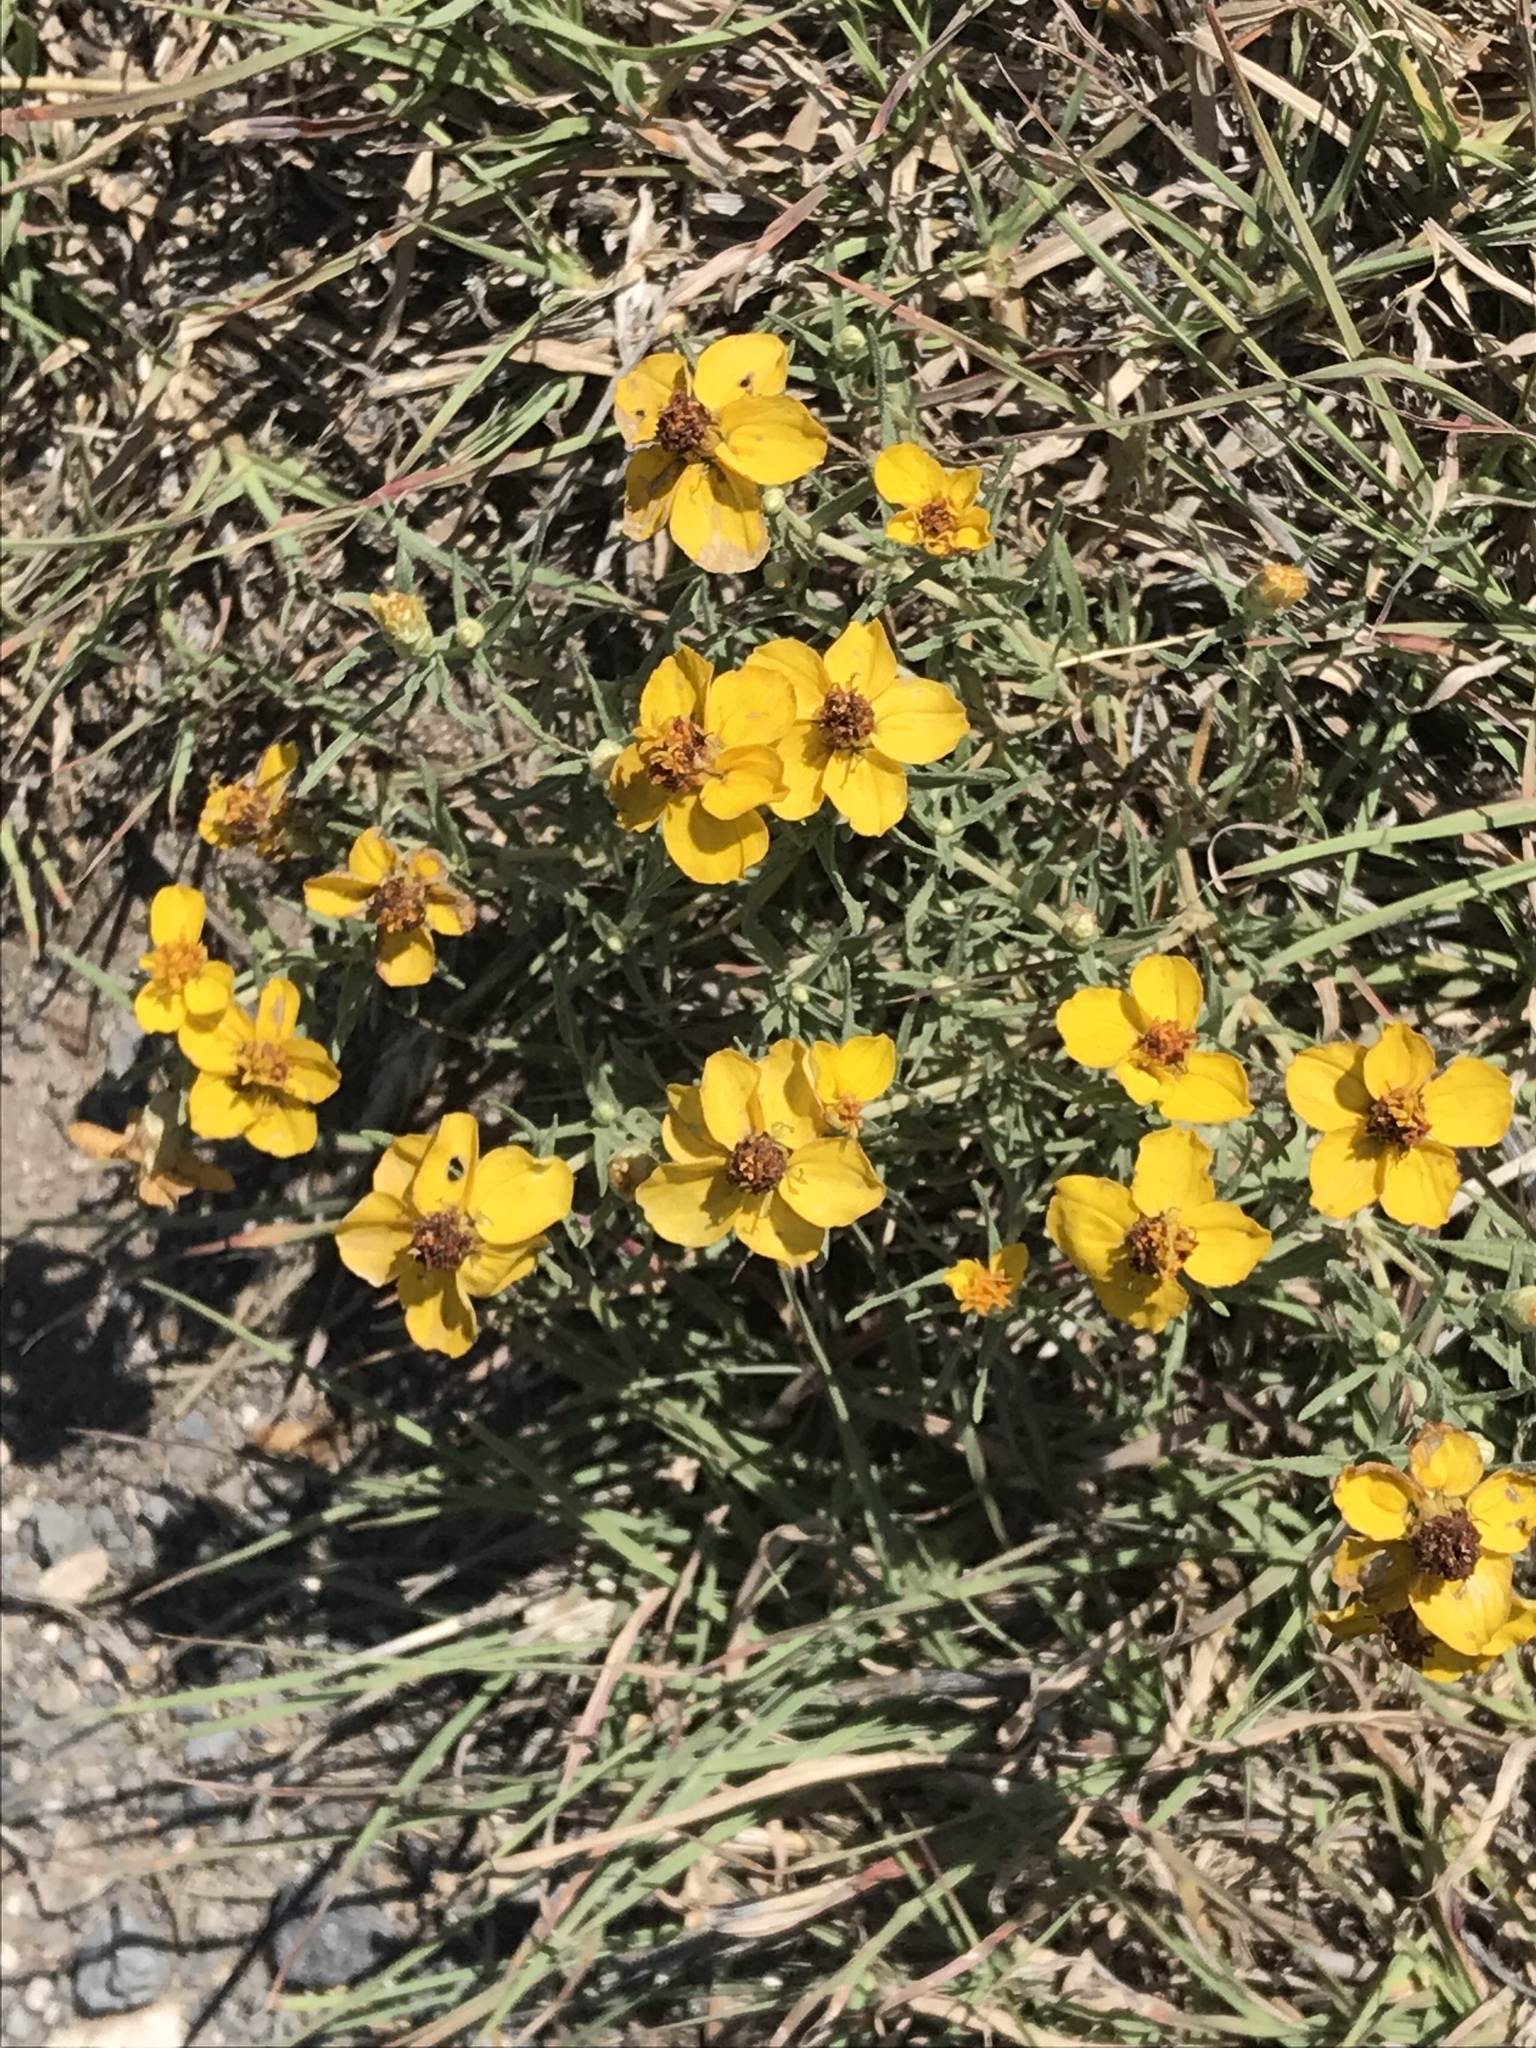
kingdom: Plantae
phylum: Tracheophyta
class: Magnoliopsida
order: Asterales
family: Asteraceae
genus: Zinnia
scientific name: Zinnia grandiflora
